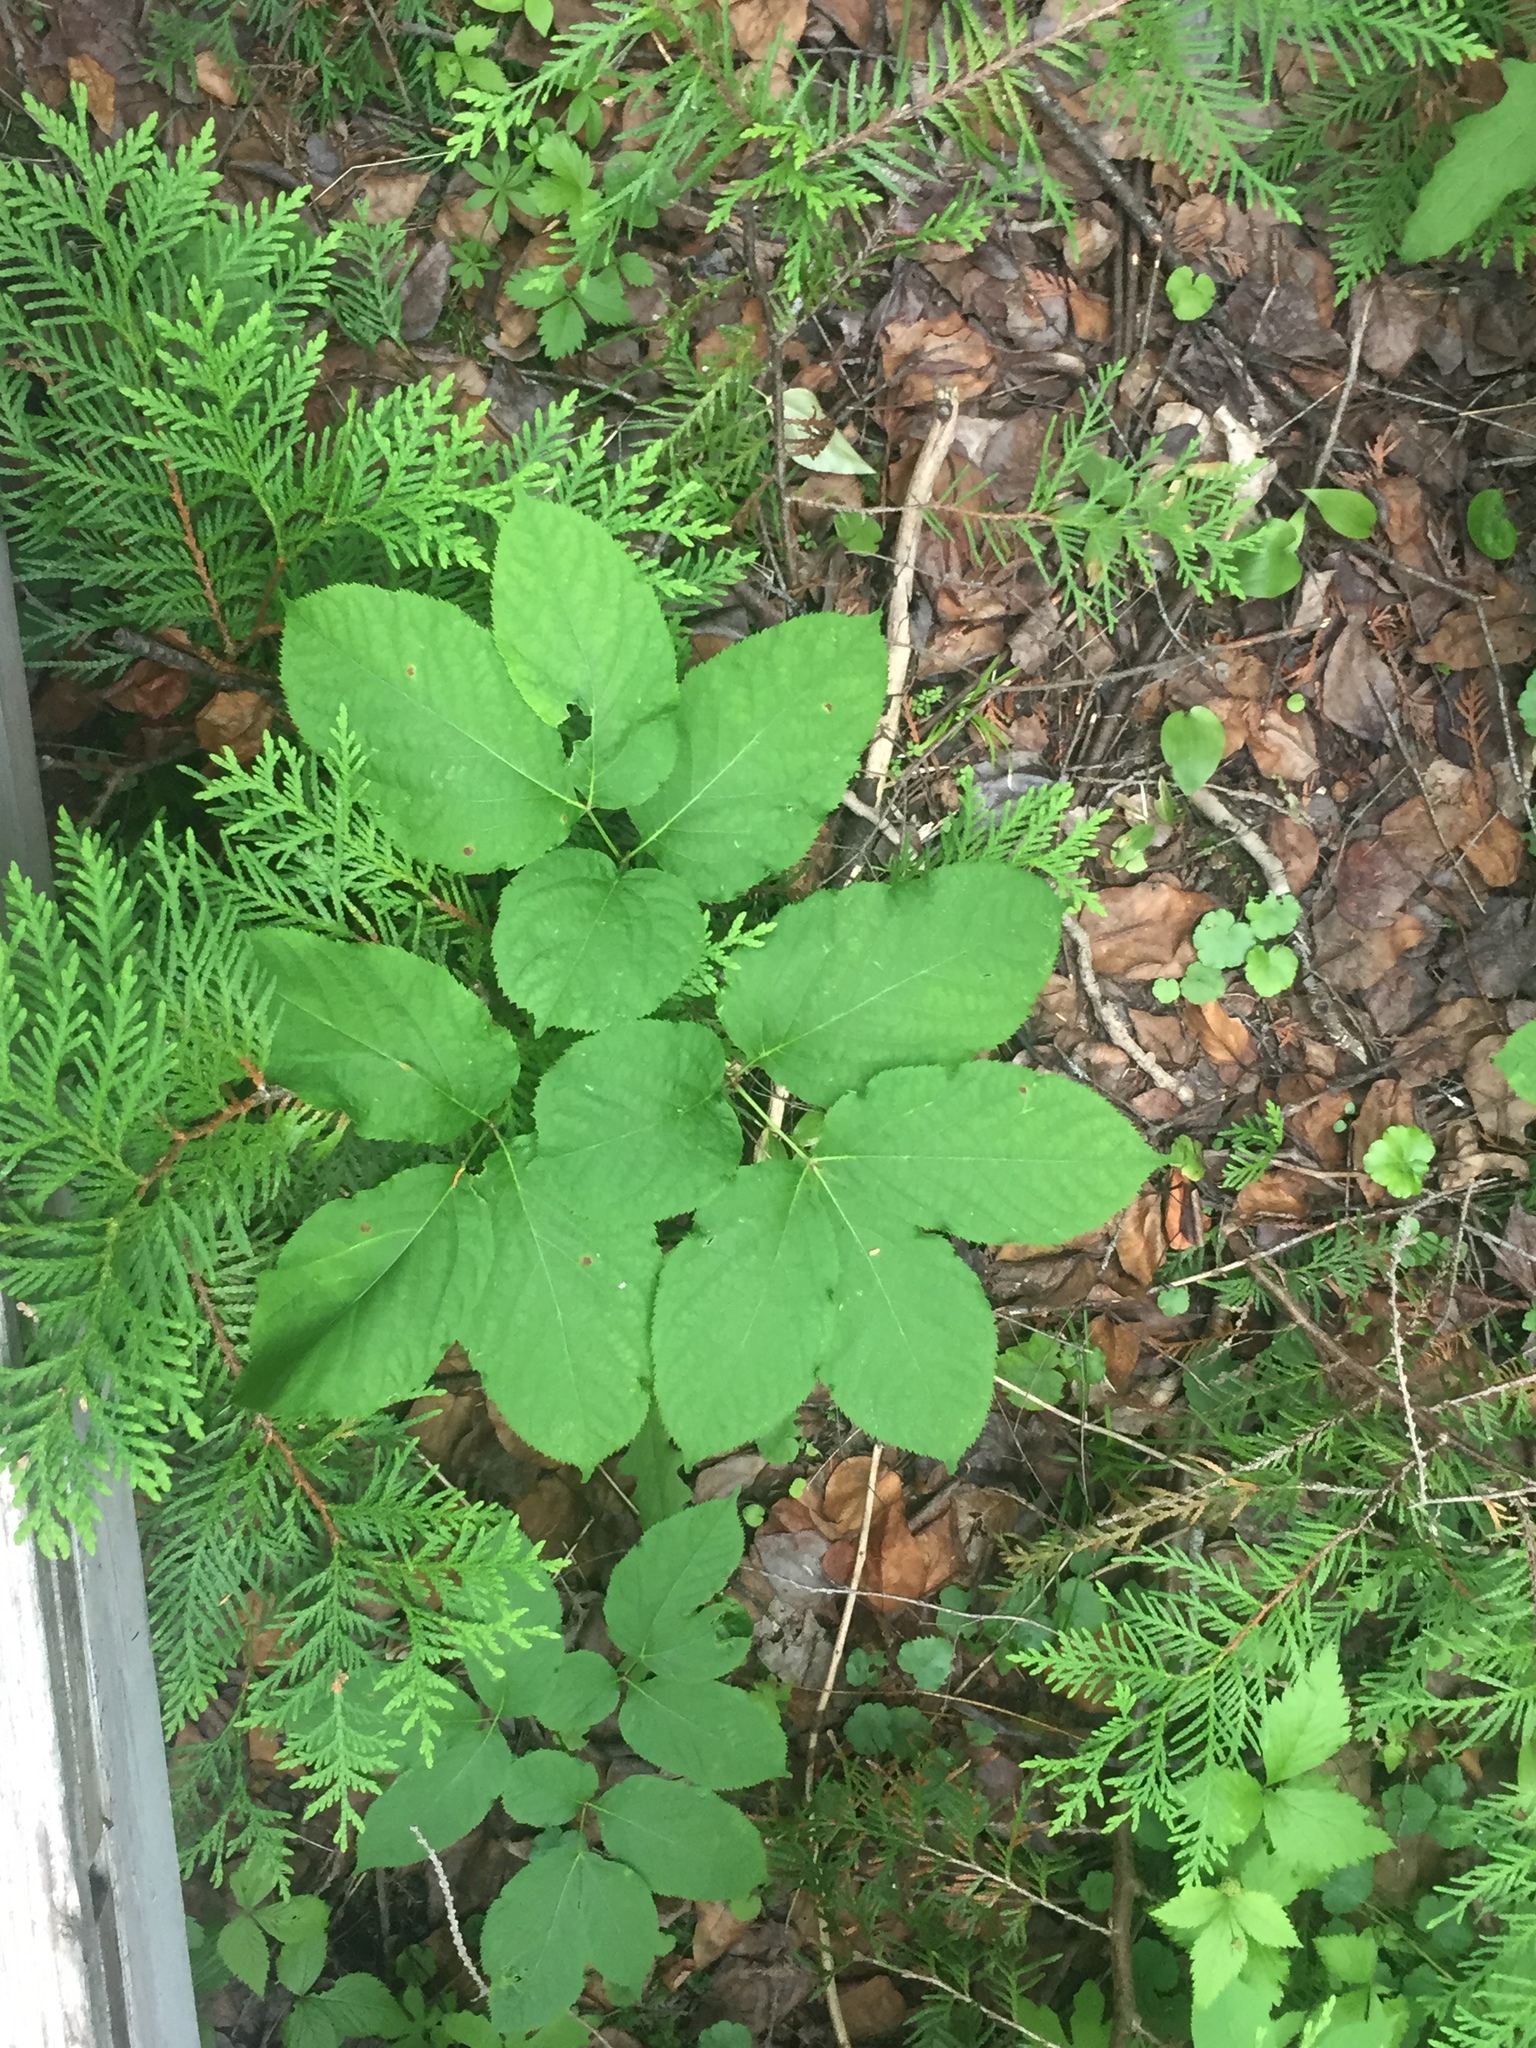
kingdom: Plantae
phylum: Tracheophyta
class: Magnoliopsida
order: Apiales
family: Araliaceae
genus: Aralia
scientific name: Aralia nudicaulis
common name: Wild sarsaparilla
